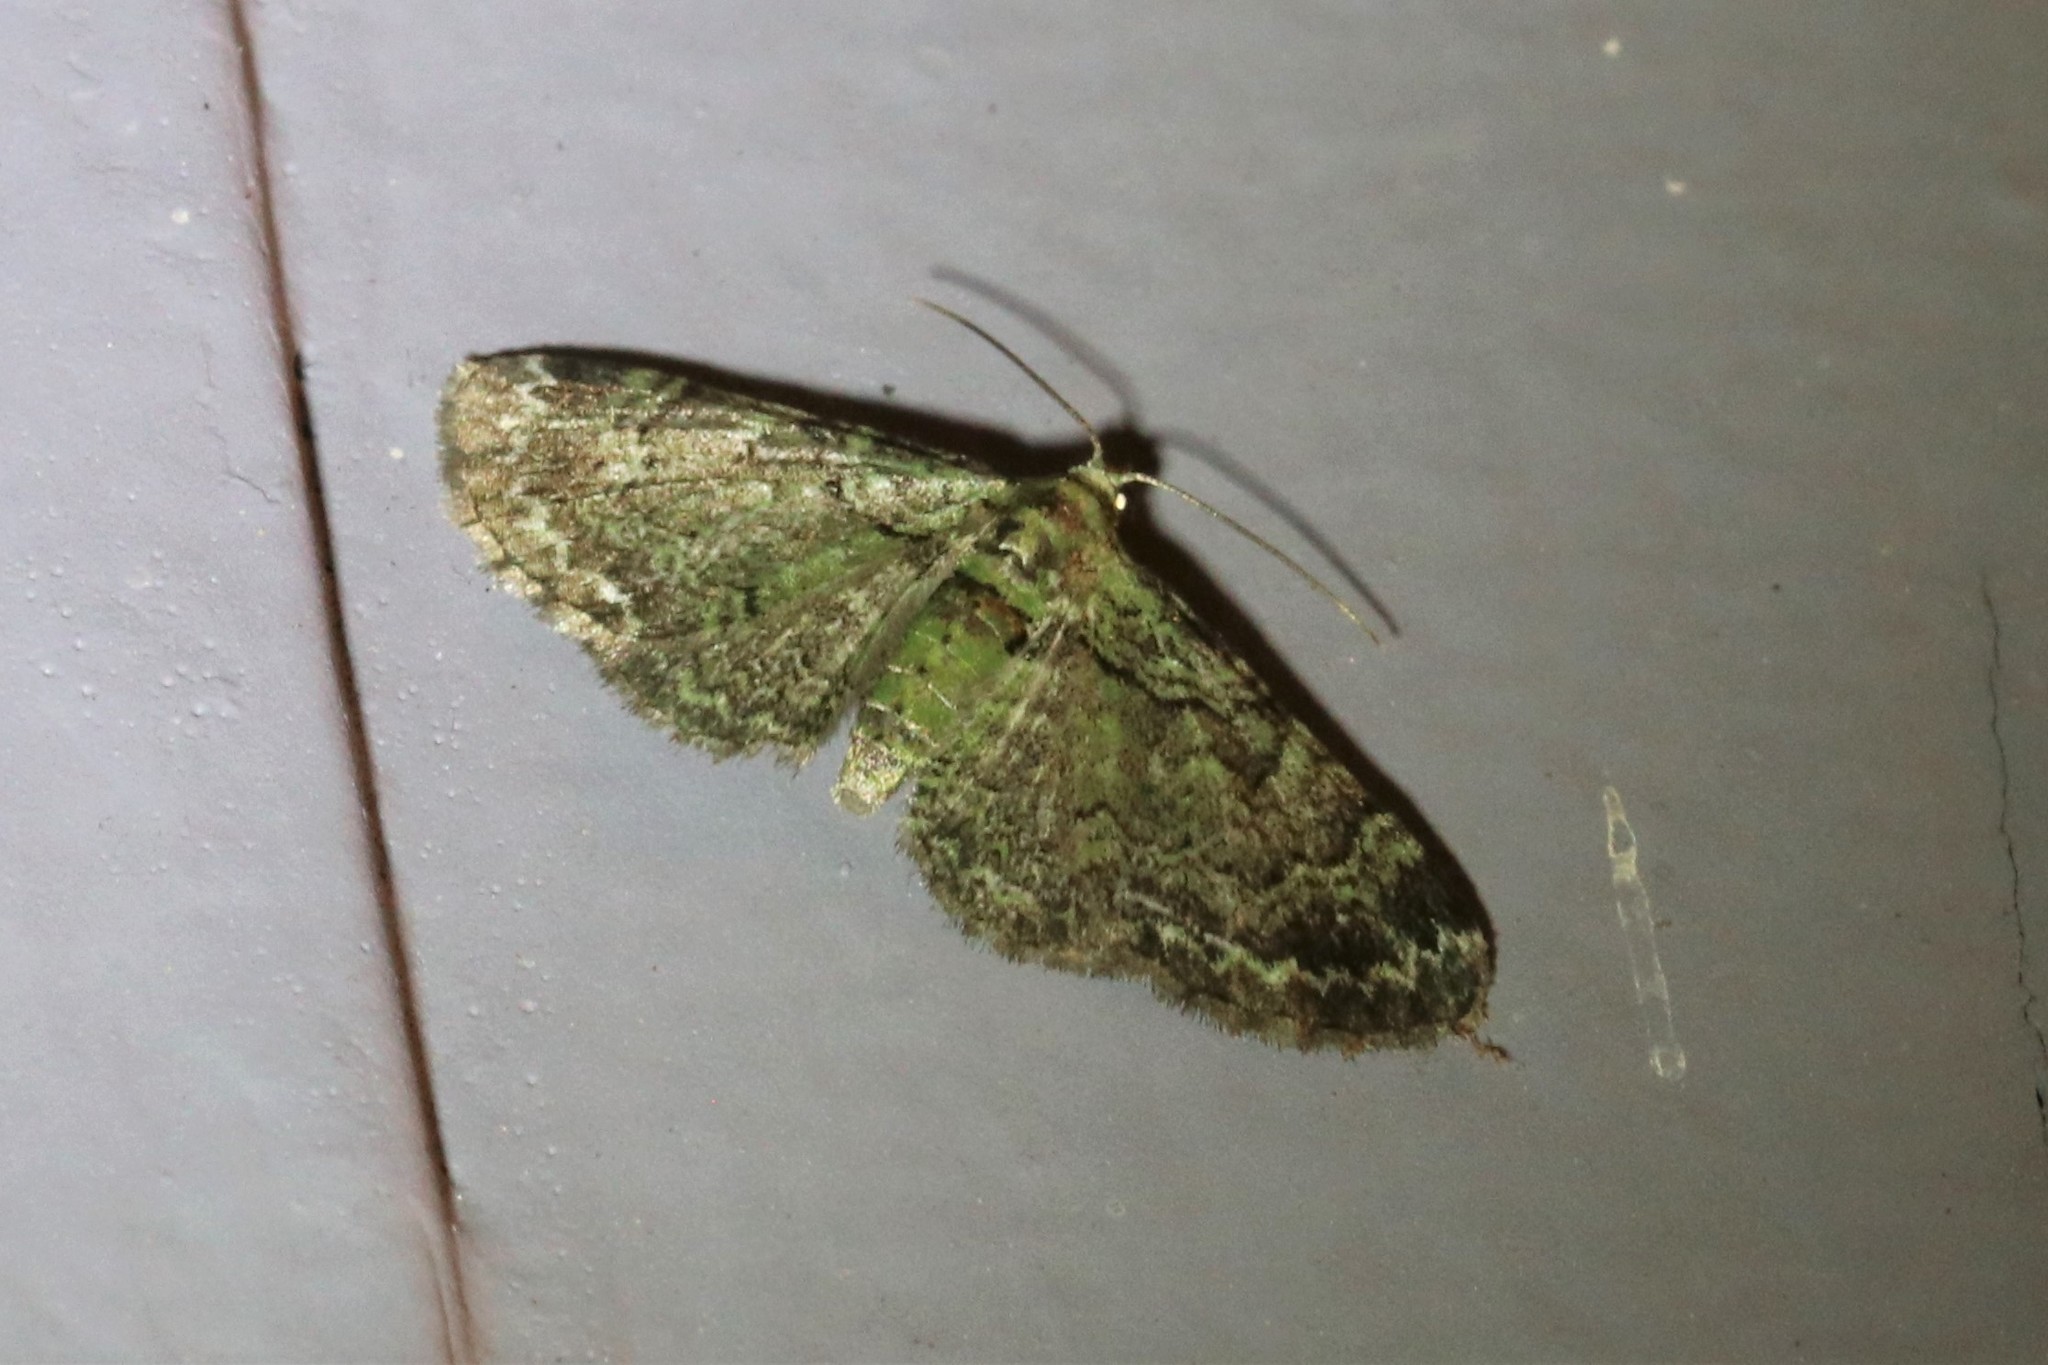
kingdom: Animalia
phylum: Arthropoda
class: Insecta
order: Lepidoptera
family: Geometridae
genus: Pasiphila
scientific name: Pasiphila rectangulata
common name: Green pug
